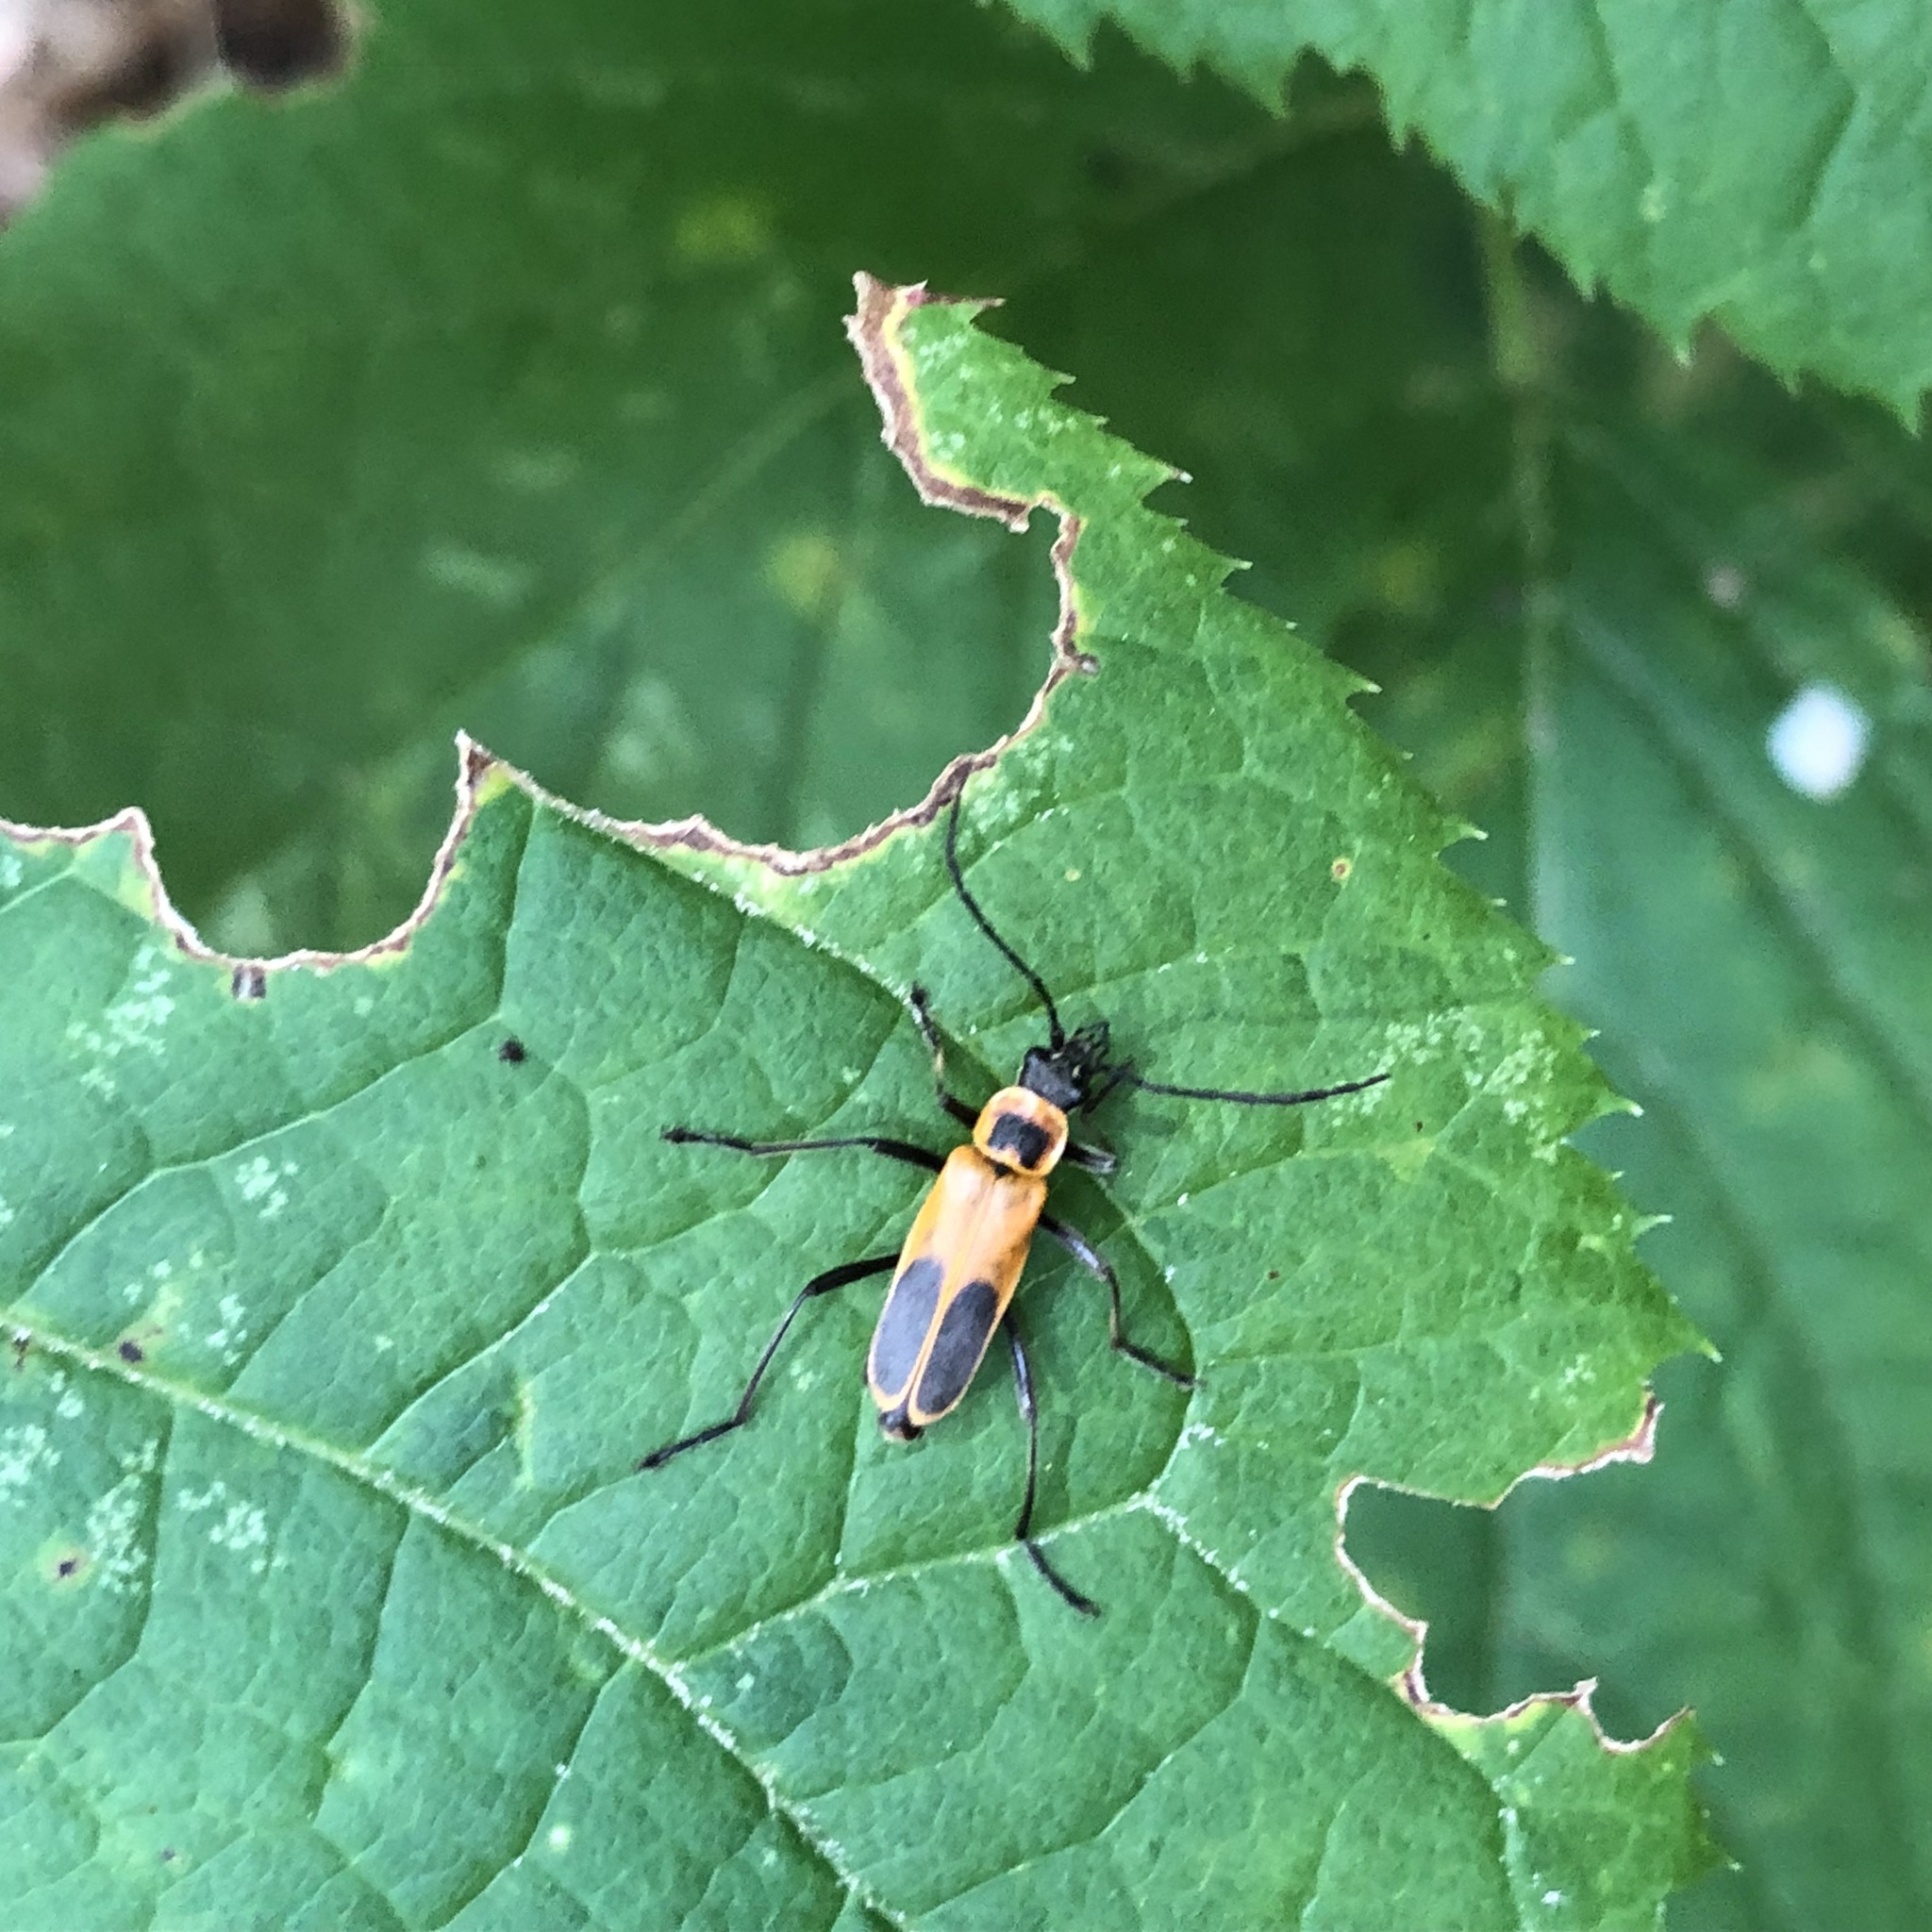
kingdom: Animalia
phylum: Arthropoda
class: Insecta
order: Coleoptera
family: Cantharidae
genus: Chauliognathus
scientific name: Chauliognathus pensylvanicus
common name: Goldenrod soldier beetle
